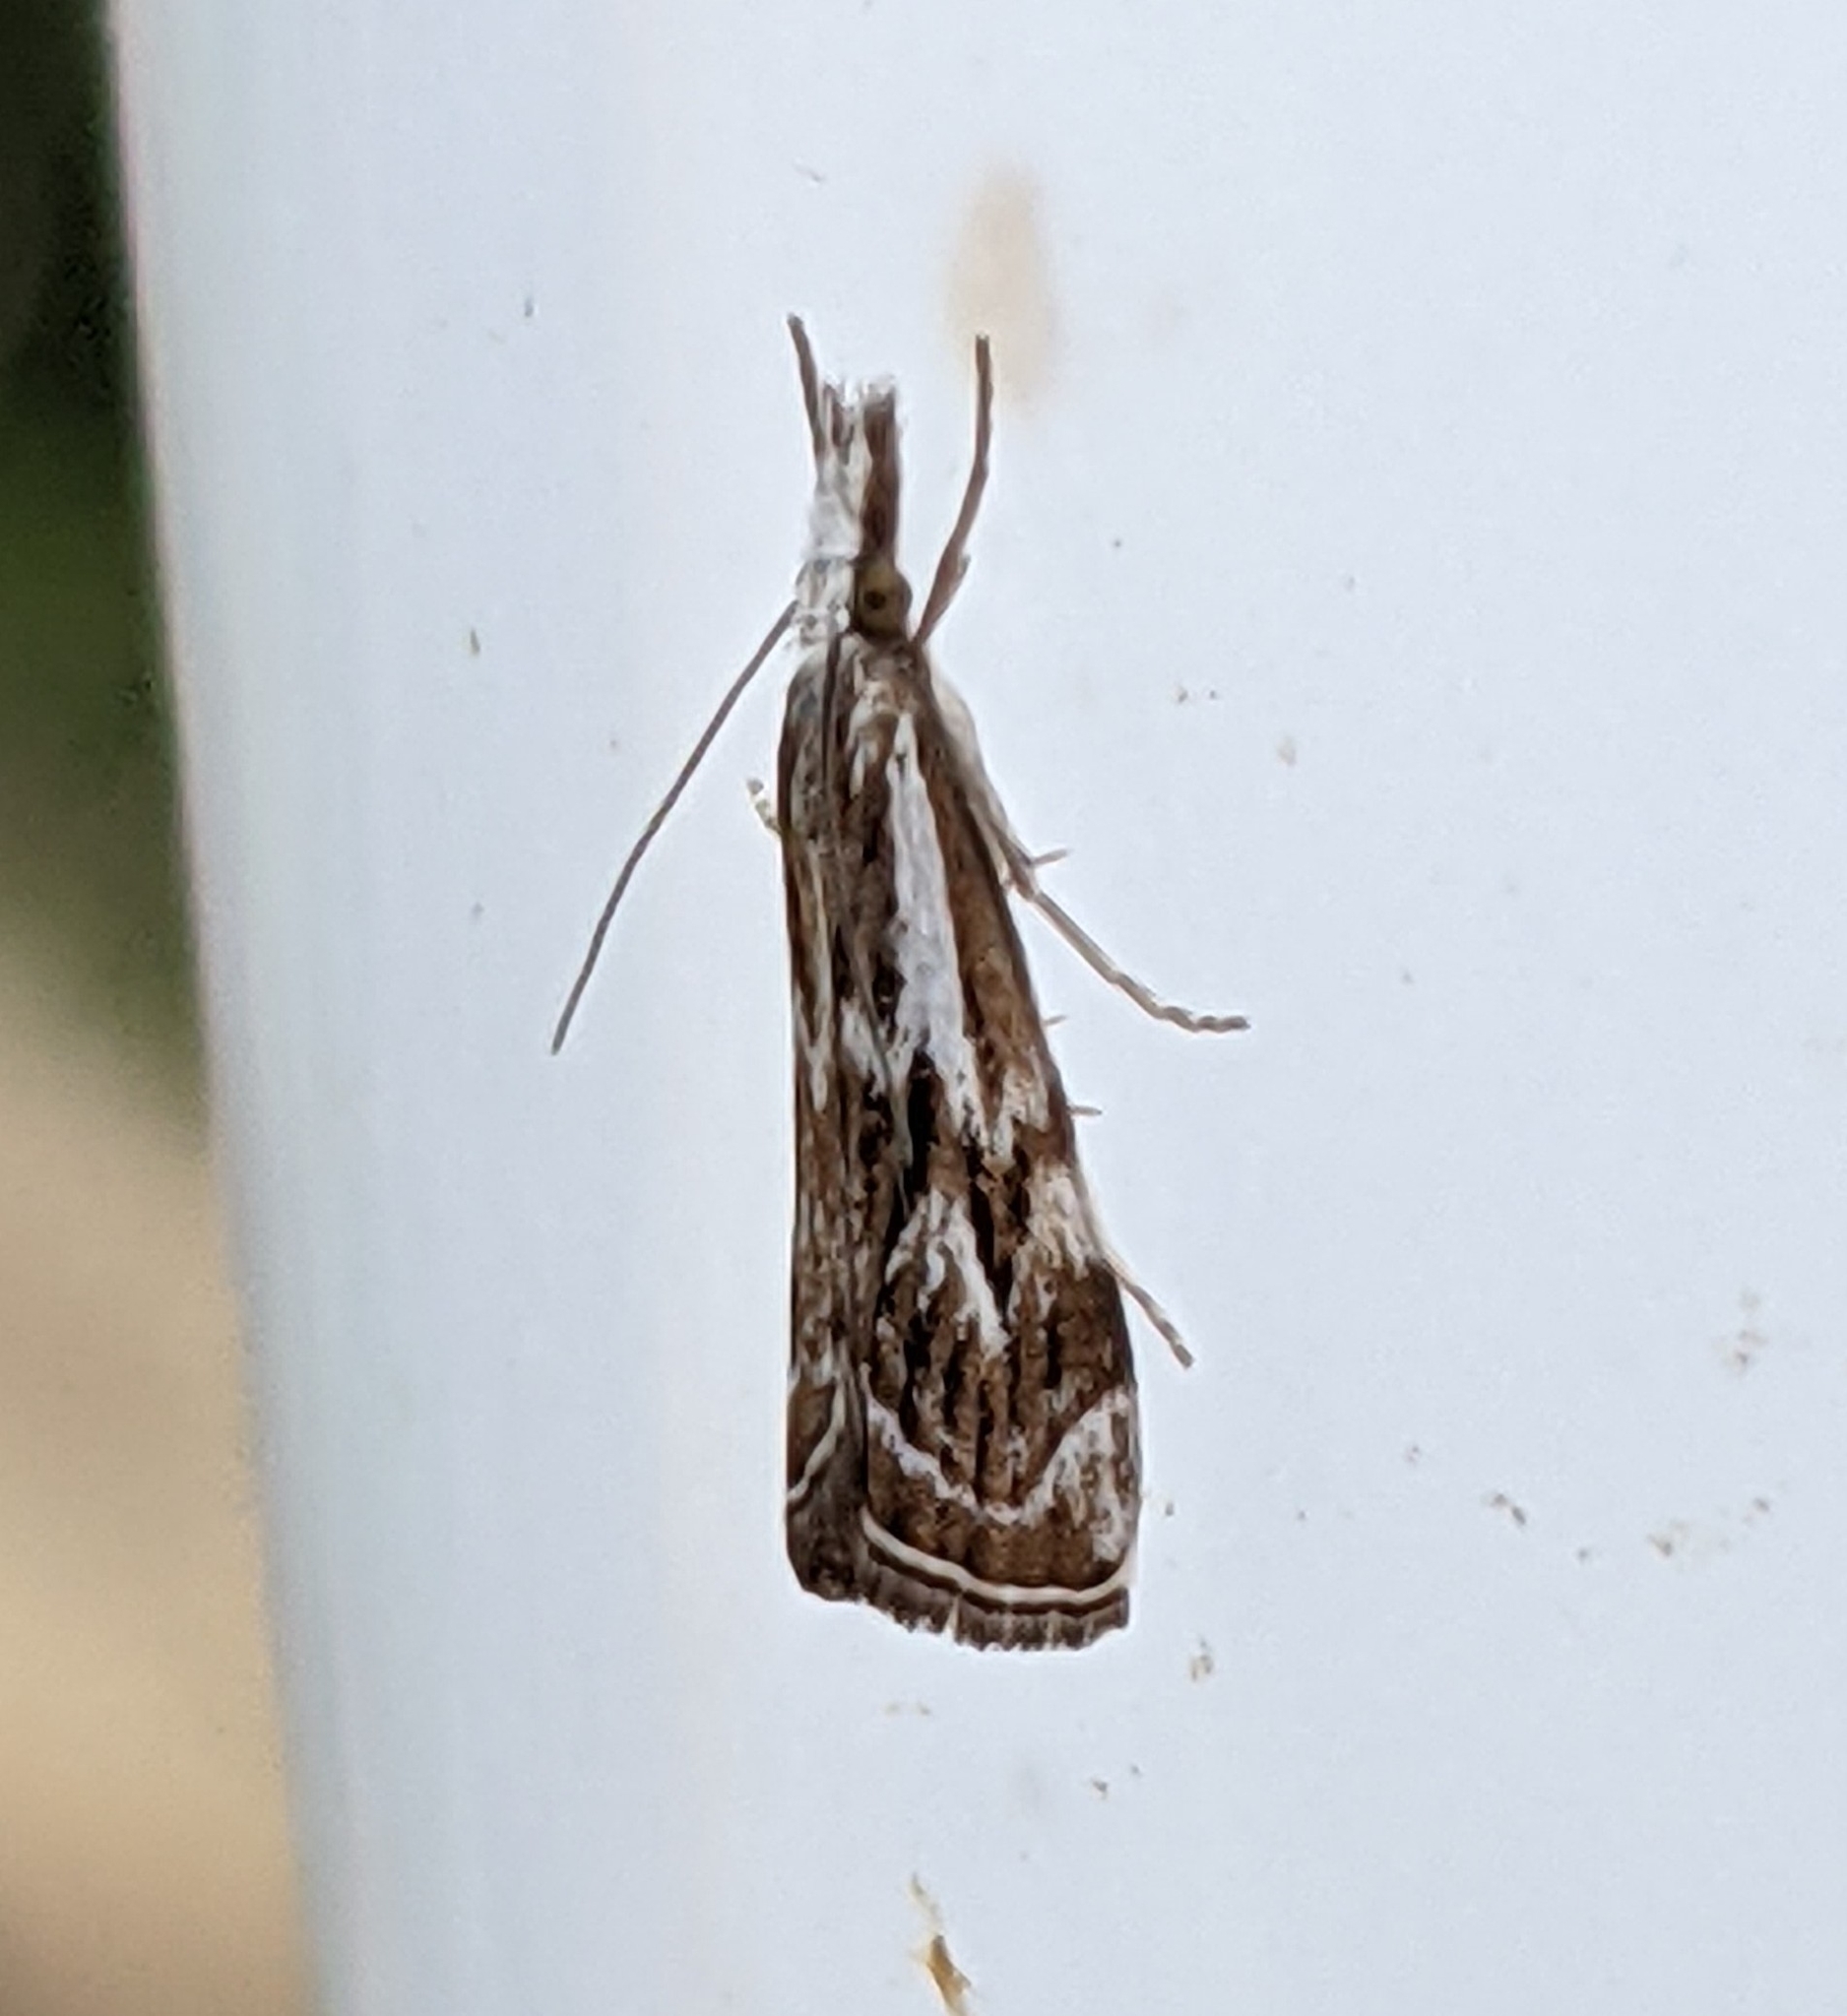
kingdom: Animalia
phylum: Arthropoda
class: Insecta
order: Lepidoptera
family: Crambidae
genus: Catoptria
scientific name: Catoptria oregonicus
